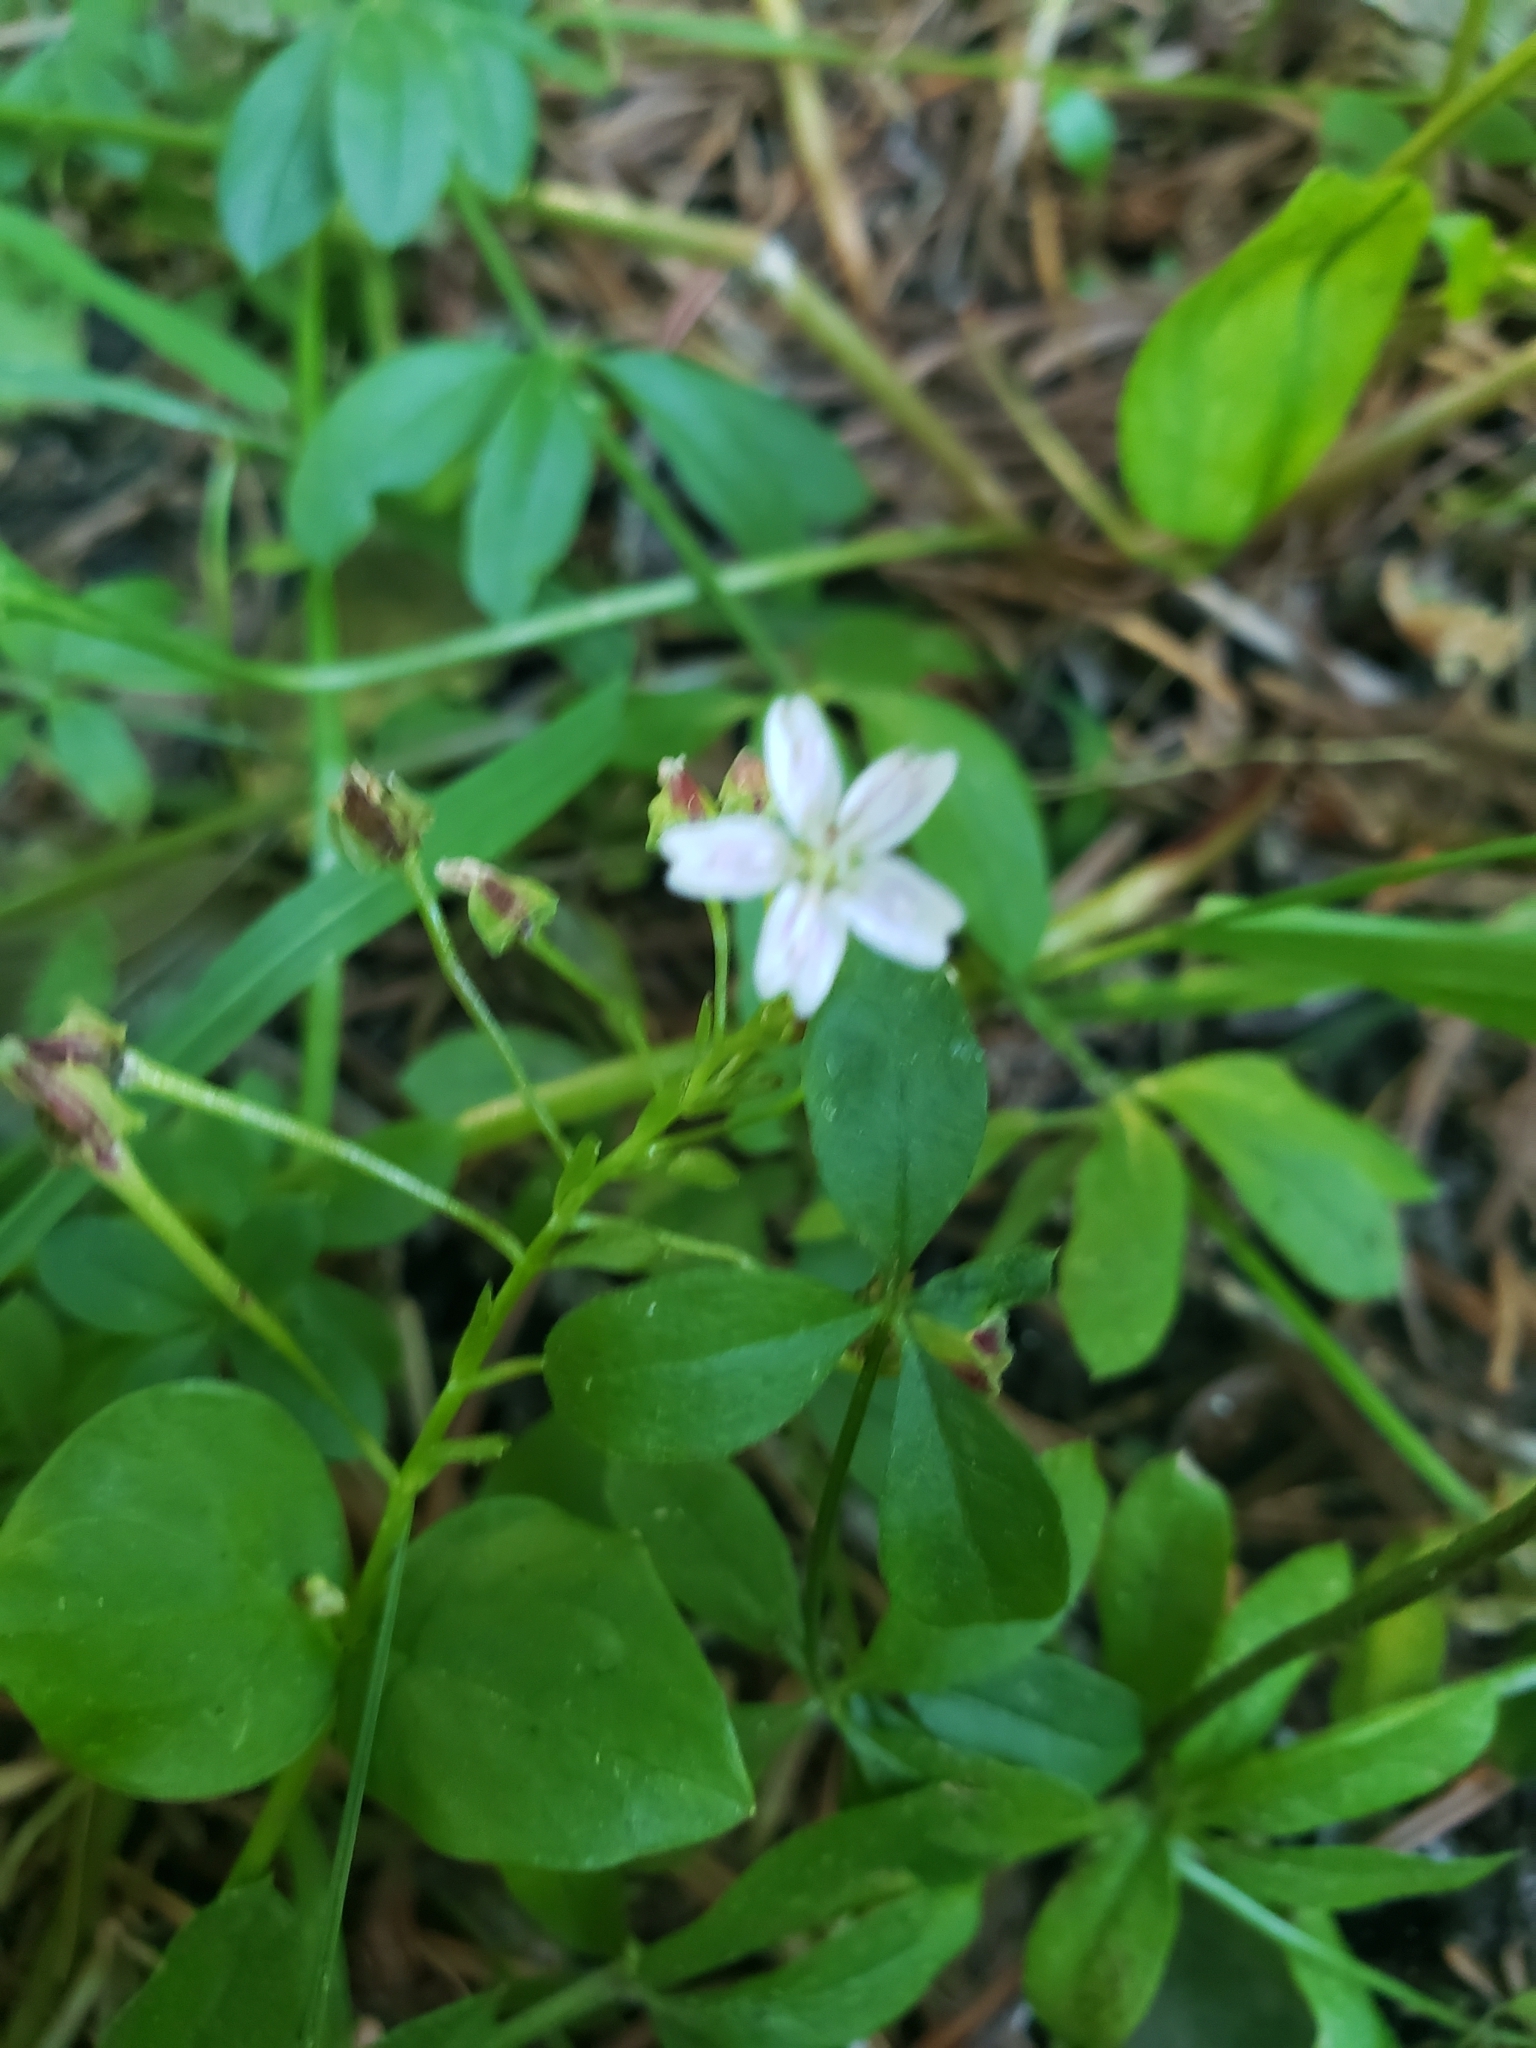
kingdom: Plantae
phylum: Tracheophyta
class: Magnoliopsida
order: Caryophyllales
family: Montiaceae
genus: Claytonia
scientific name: Claytonia sibirica
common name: Pink purslane
